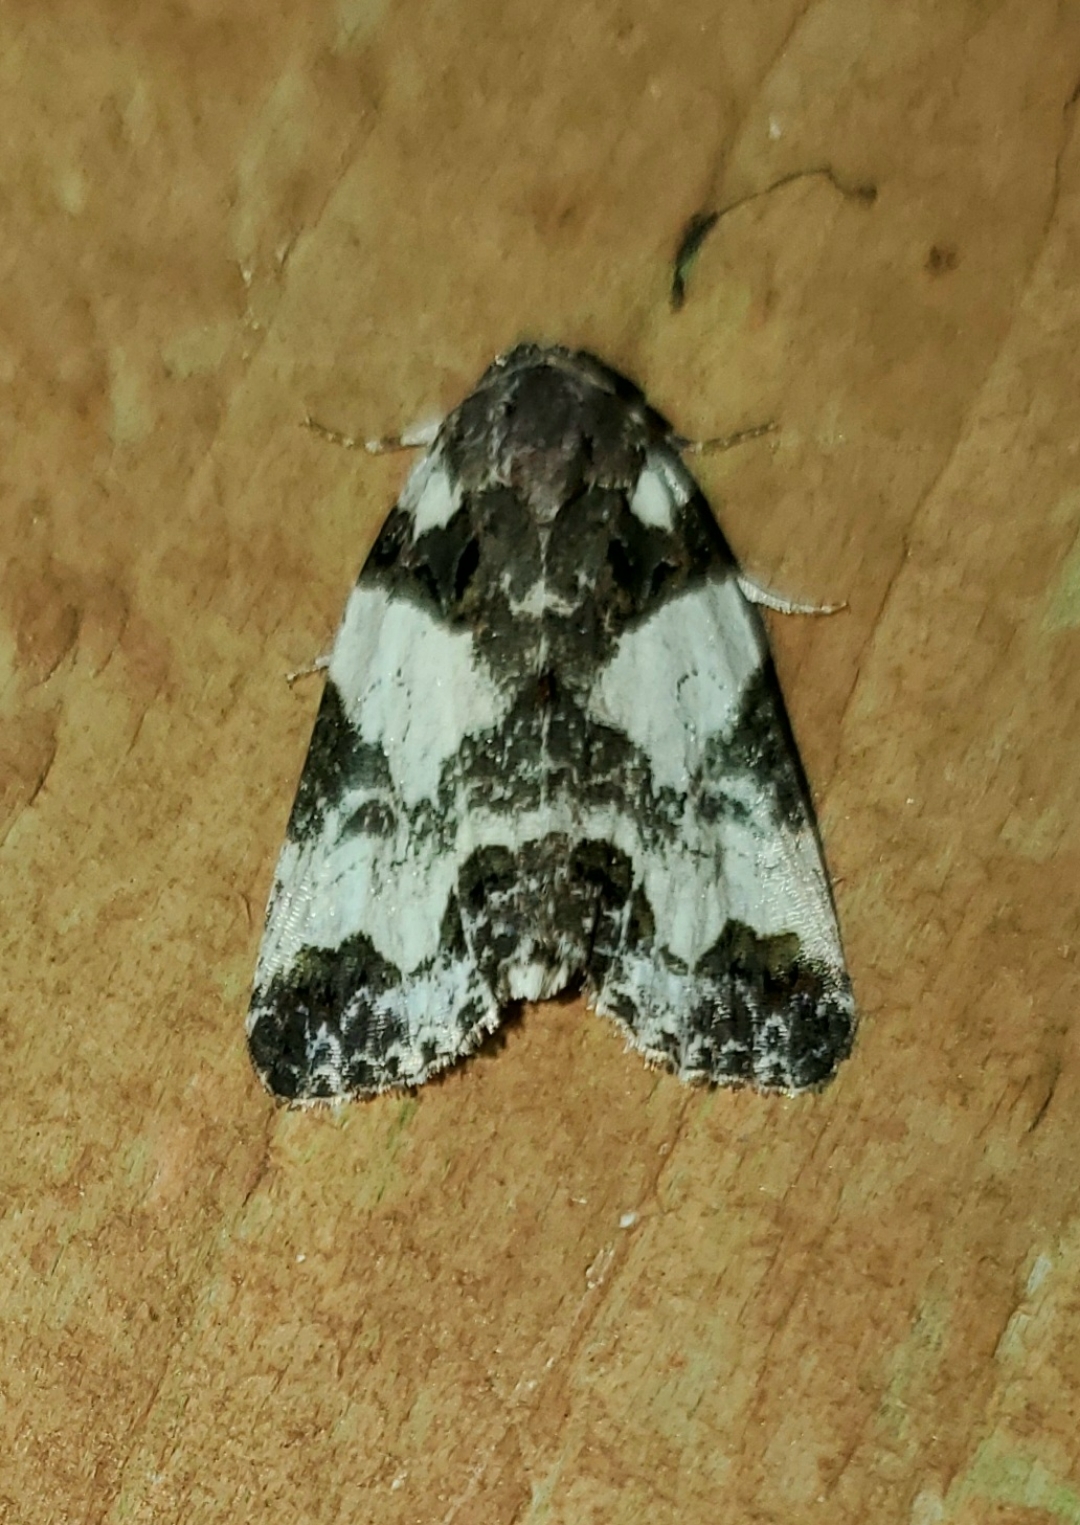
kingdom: Animalia
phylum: Arthropoda
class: Insecta
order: Lepidoptera
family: Noctuidae
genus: Cerma
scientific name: Cerma cerintha
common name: Tufted bird-dropping moth
